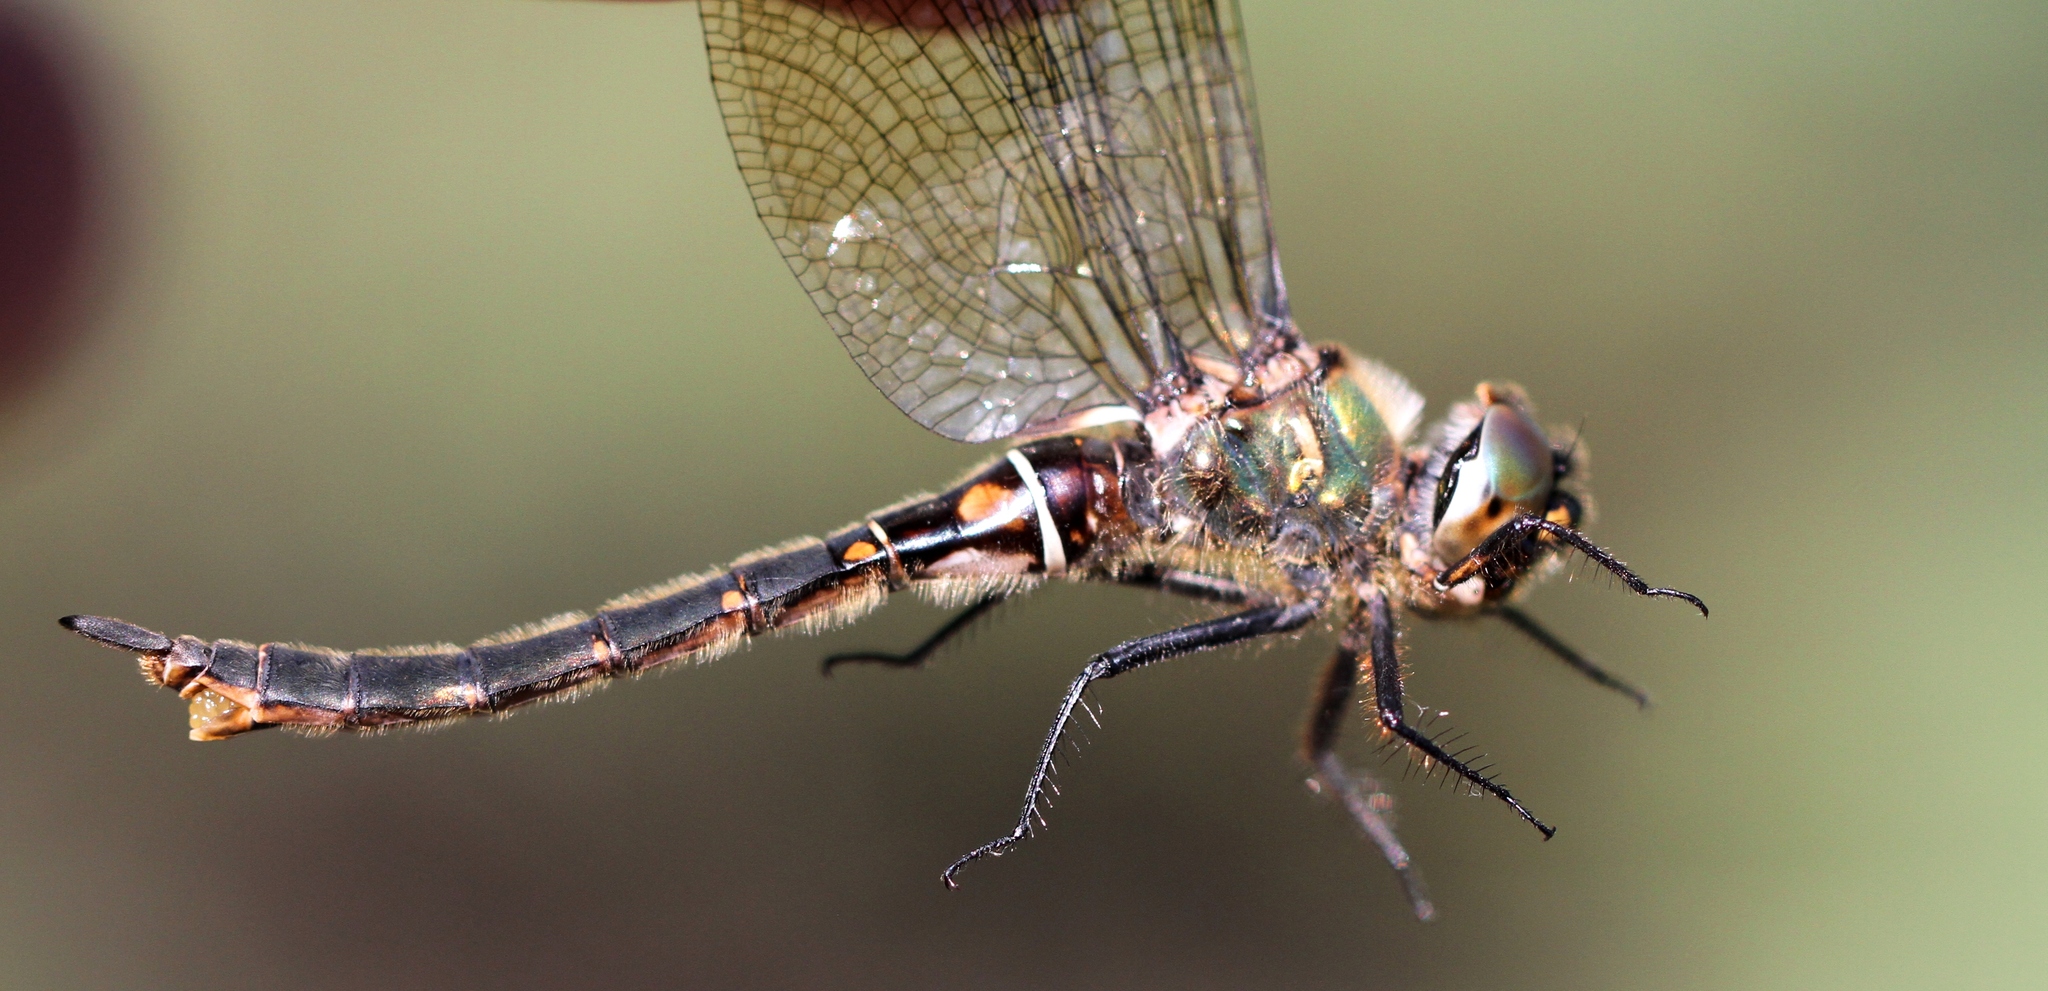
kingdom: Animalia
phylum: Arthropoda
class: Insecta
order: Odonata
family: Corduliidae
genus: Somatochlora
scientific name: Somatochlora brevicincta
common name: Quebec emerald
